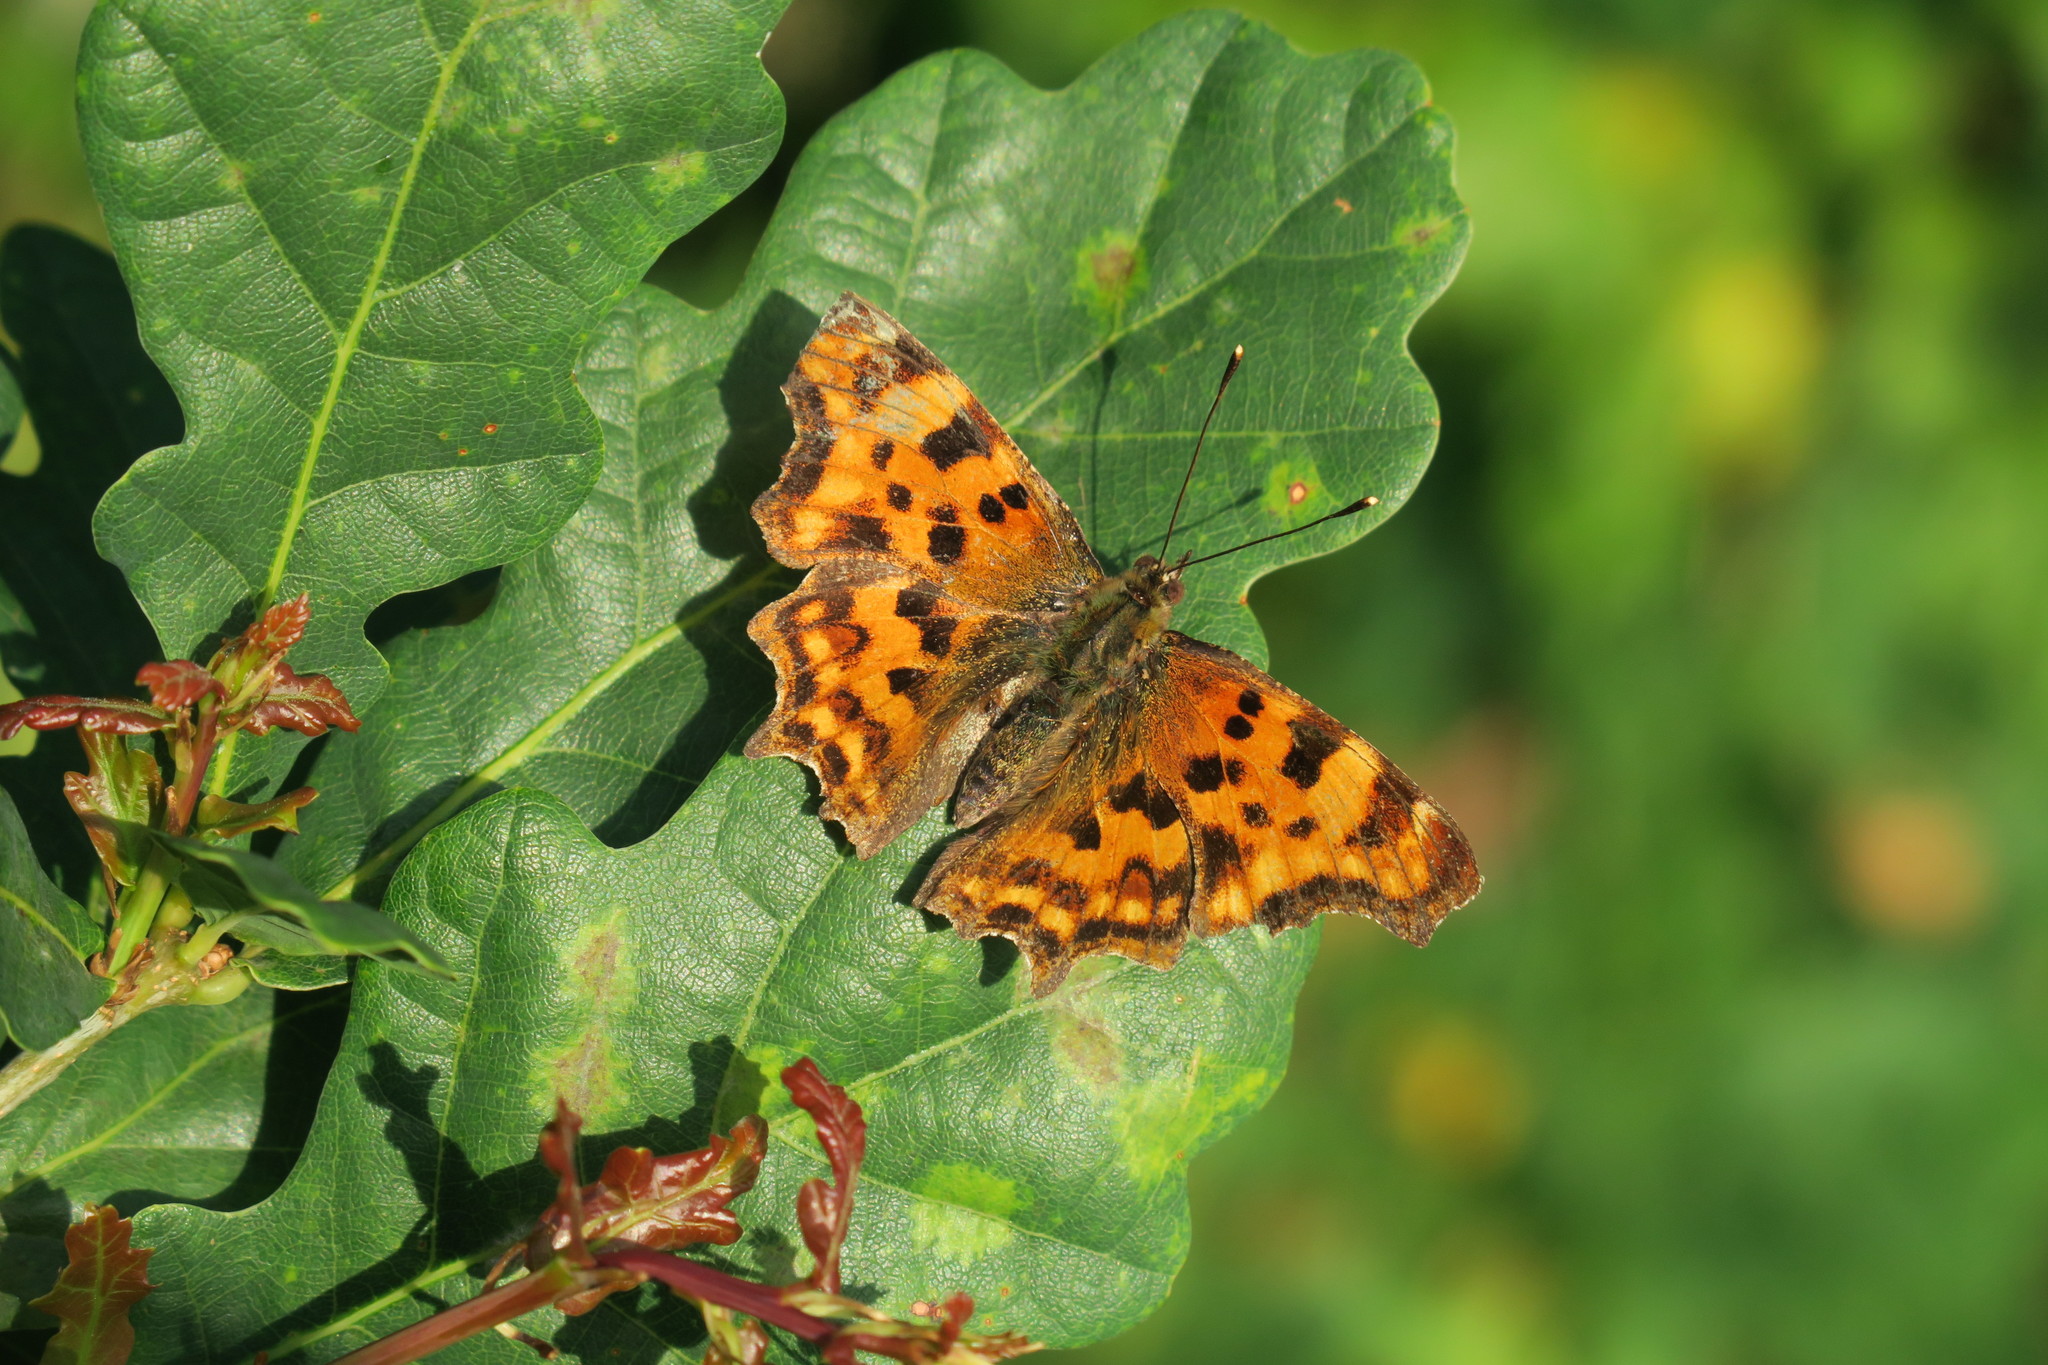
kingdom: Animalia
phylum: Arthropoda
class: Insecta
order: Lepidoptera
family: Nymphalidae
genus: Polygonia
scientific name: Polygonia c-album
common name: Comma
